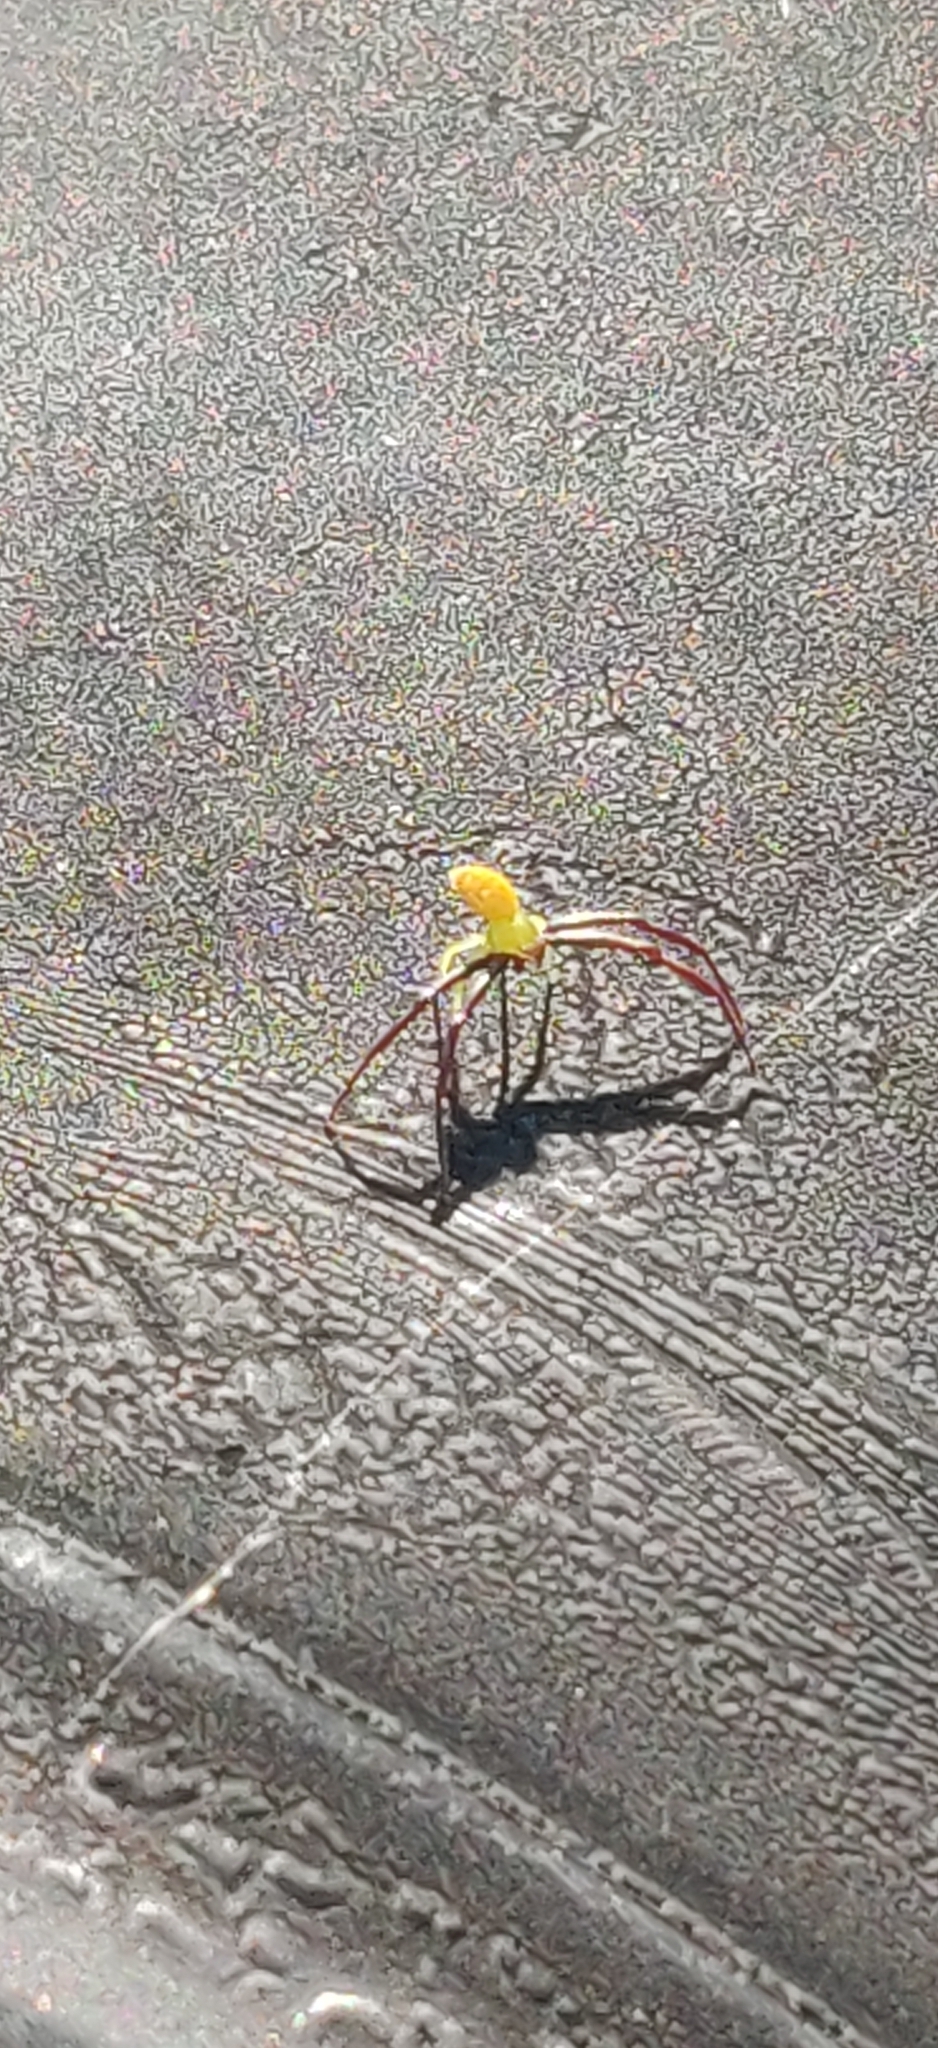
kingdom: Animalia
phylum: Arthropoda
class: Arachnida
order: Araneae
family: Thomisidae
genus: Misumenoides
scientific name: Misumenoides formosipes
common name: White-banded crab spider
